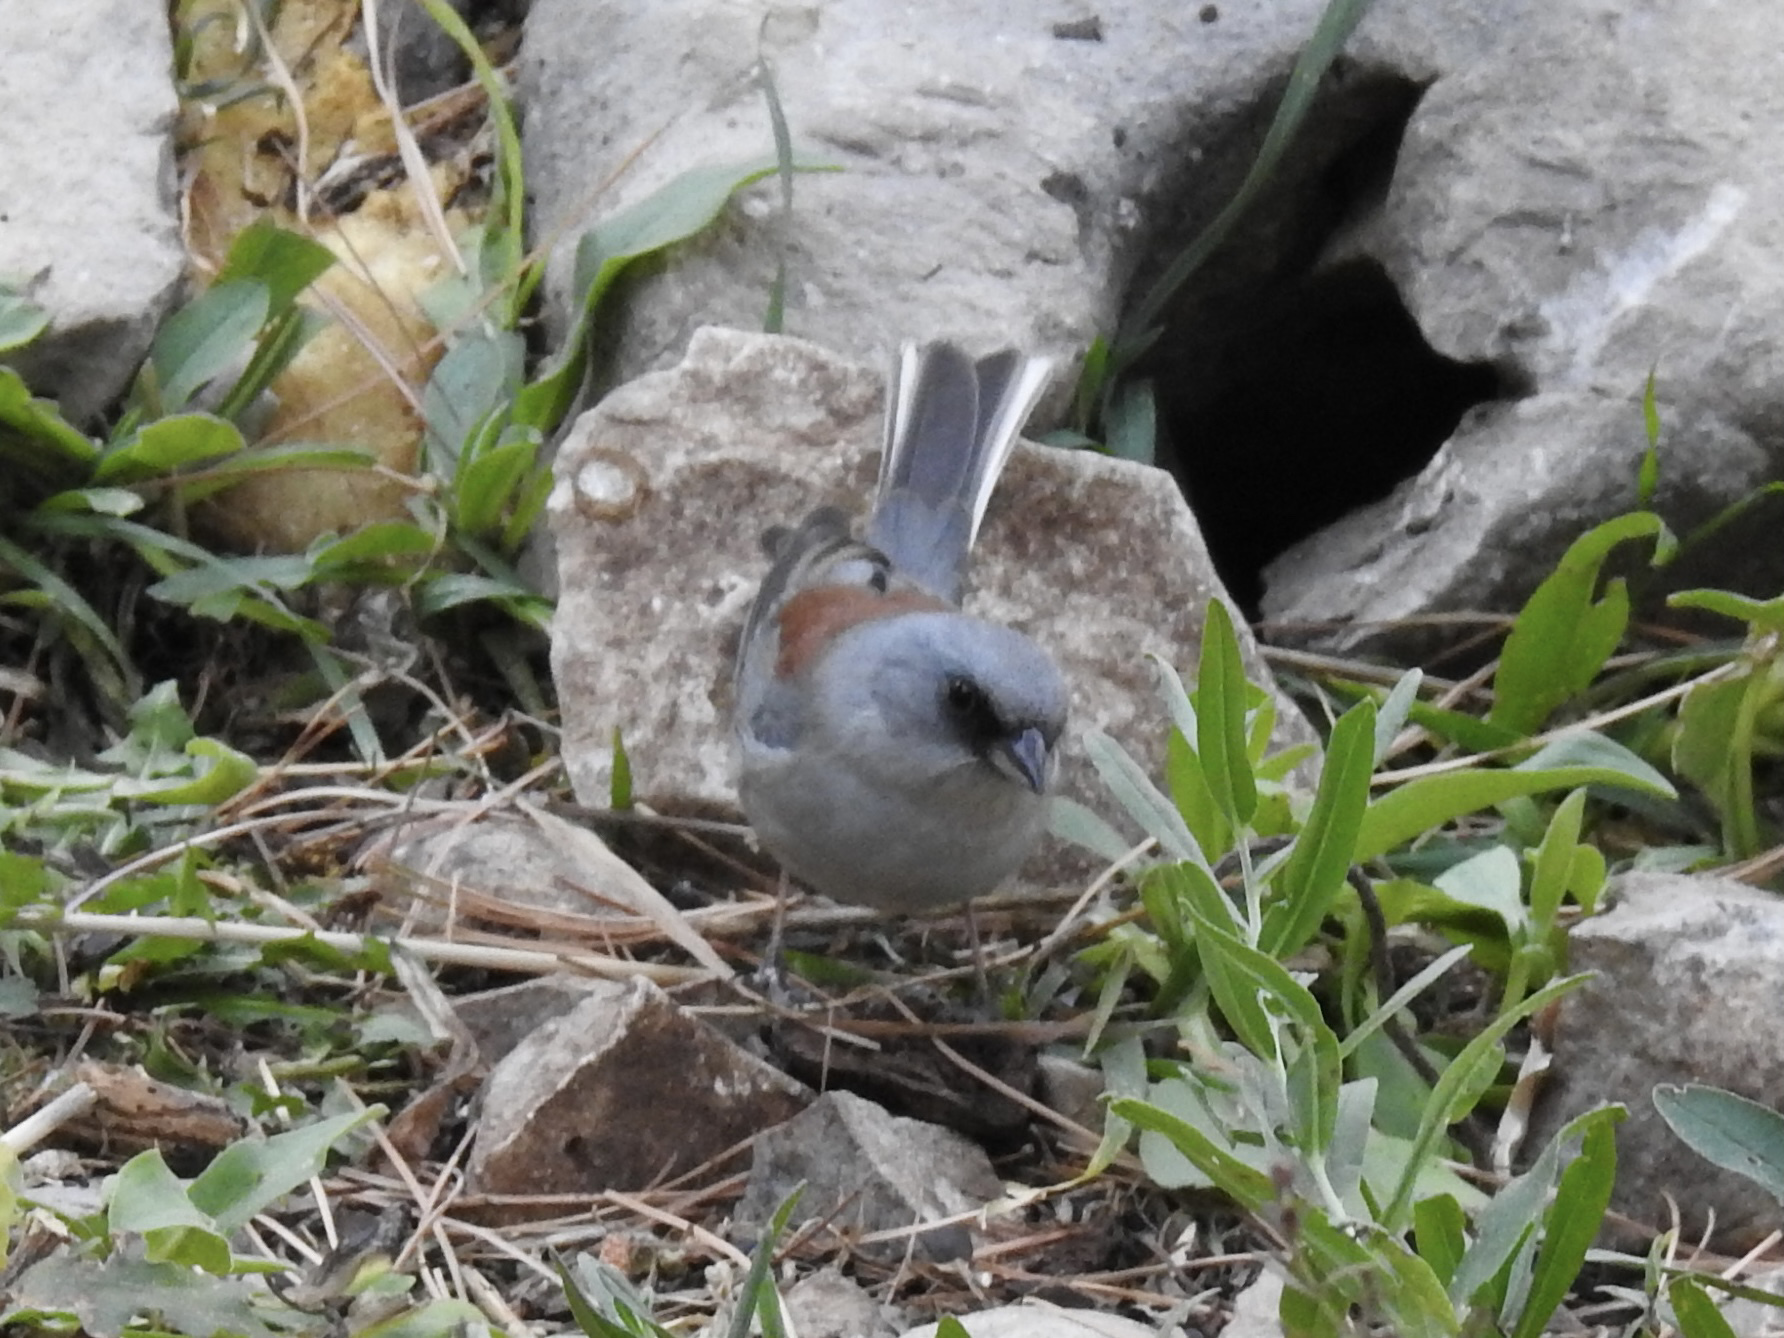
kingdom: Animalia
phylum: Chordata
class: Aves
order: Passeriformes
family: Passerellidae
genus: Junco
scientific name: Junco hyemalis
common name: Dark-eyed junco
